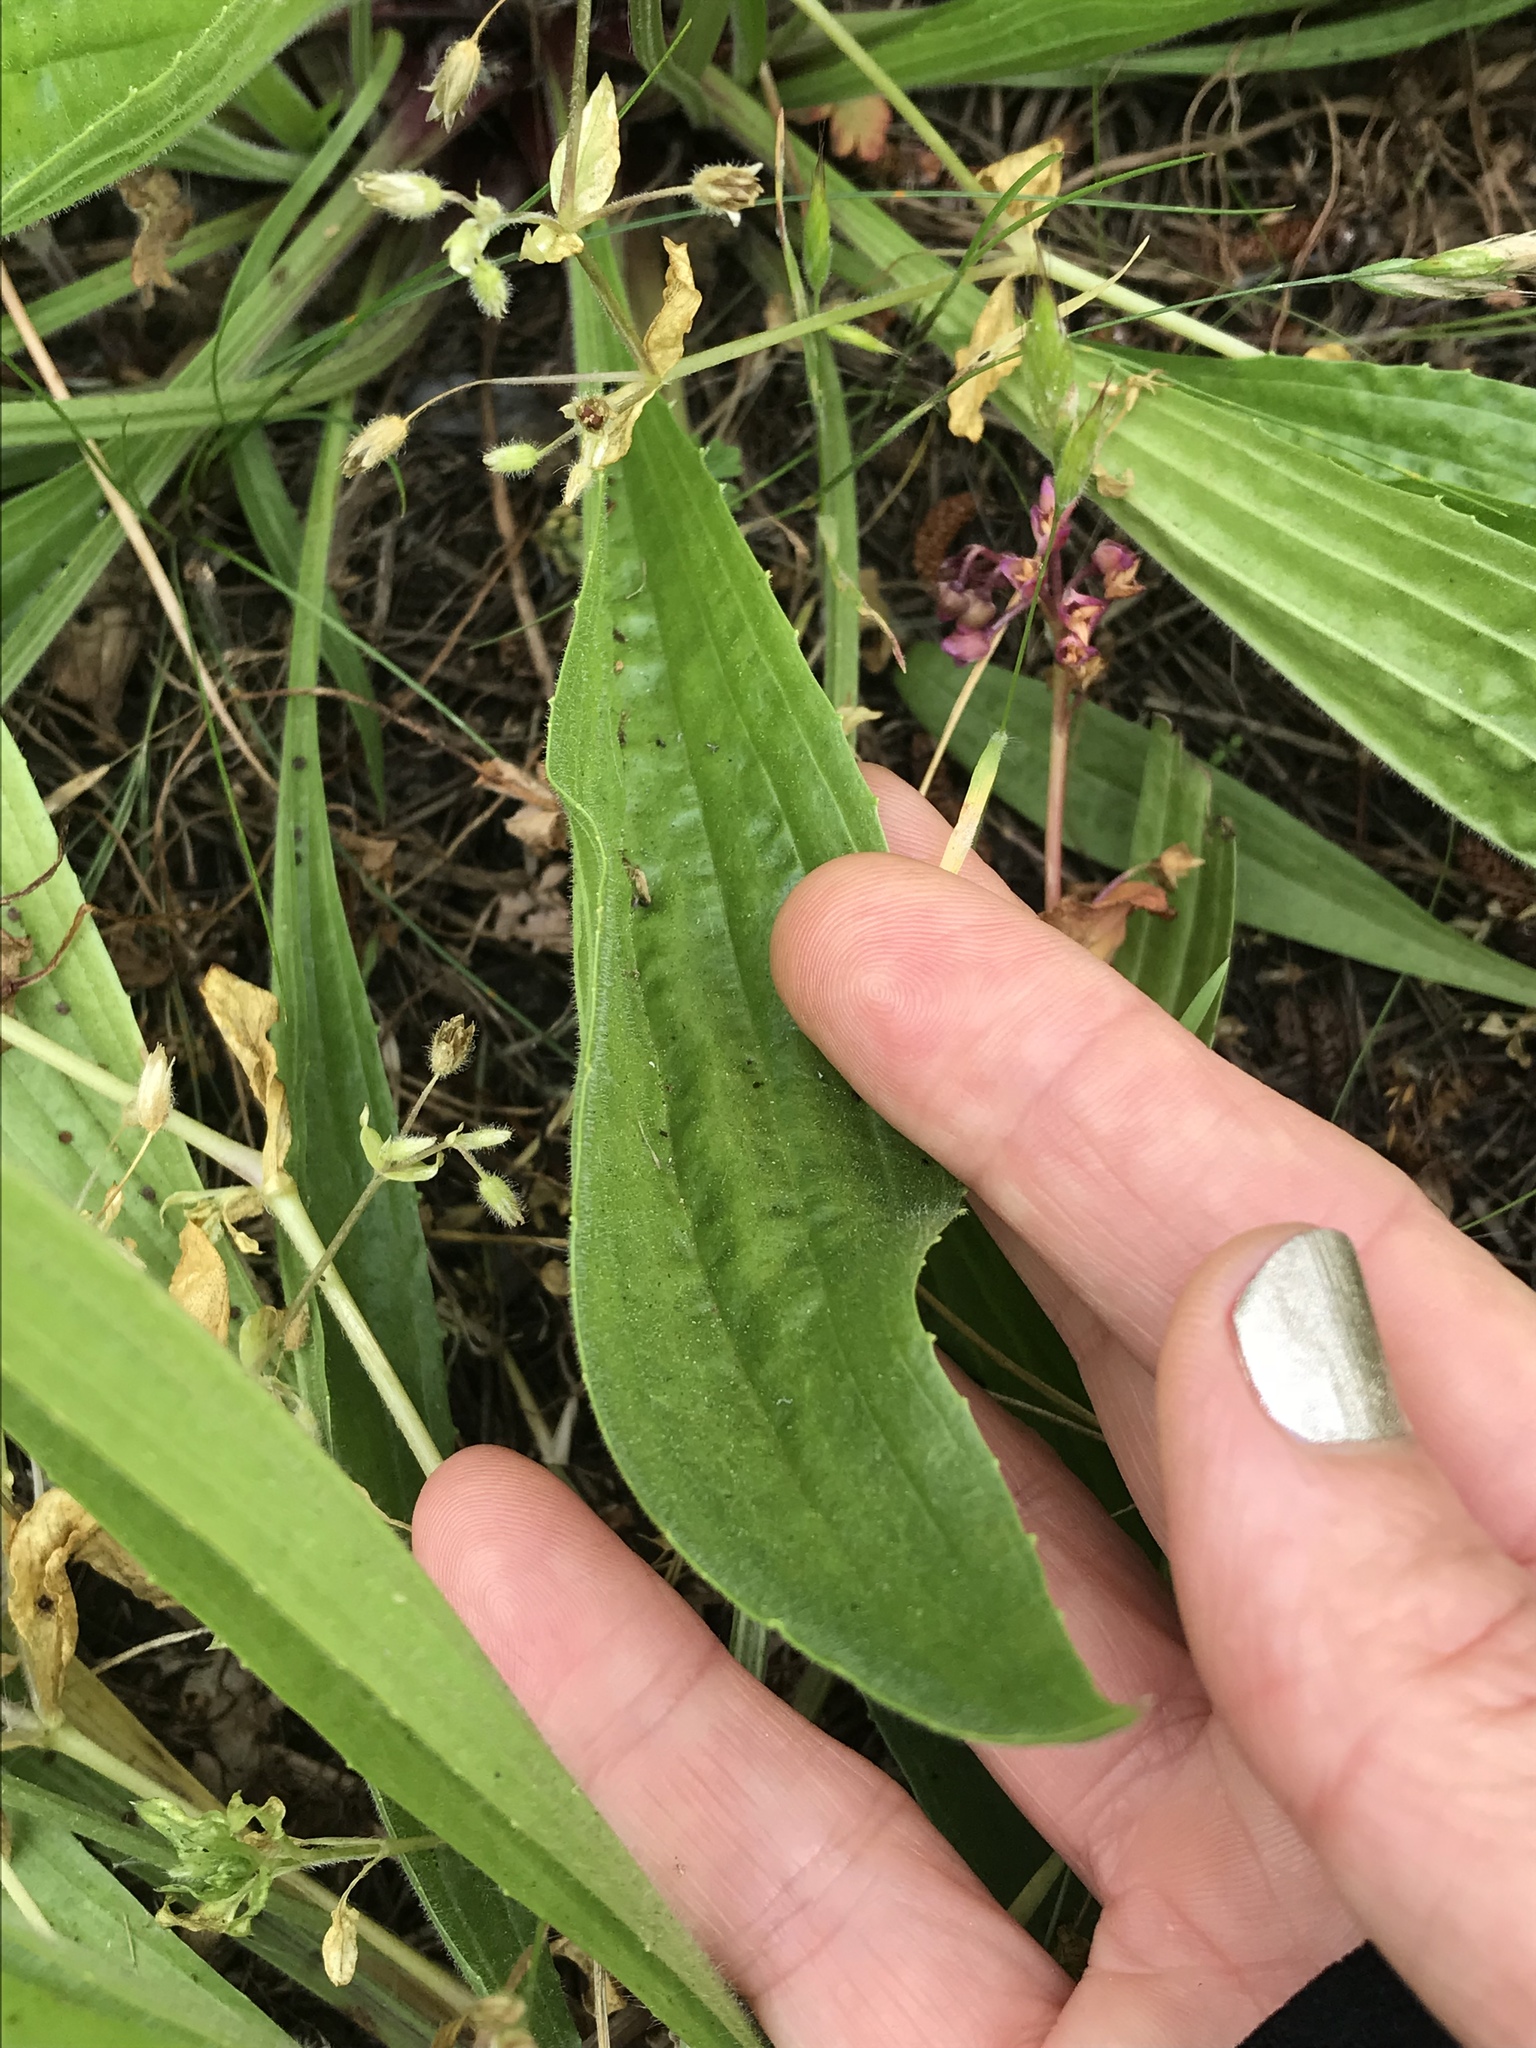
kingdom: Plantae
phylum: Tracheophyta
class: Magnoliopsida
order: Lamiales
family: Plantaginaceae
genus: Plantago
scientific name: Plantago lanceolata
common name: Ribwort plantain
